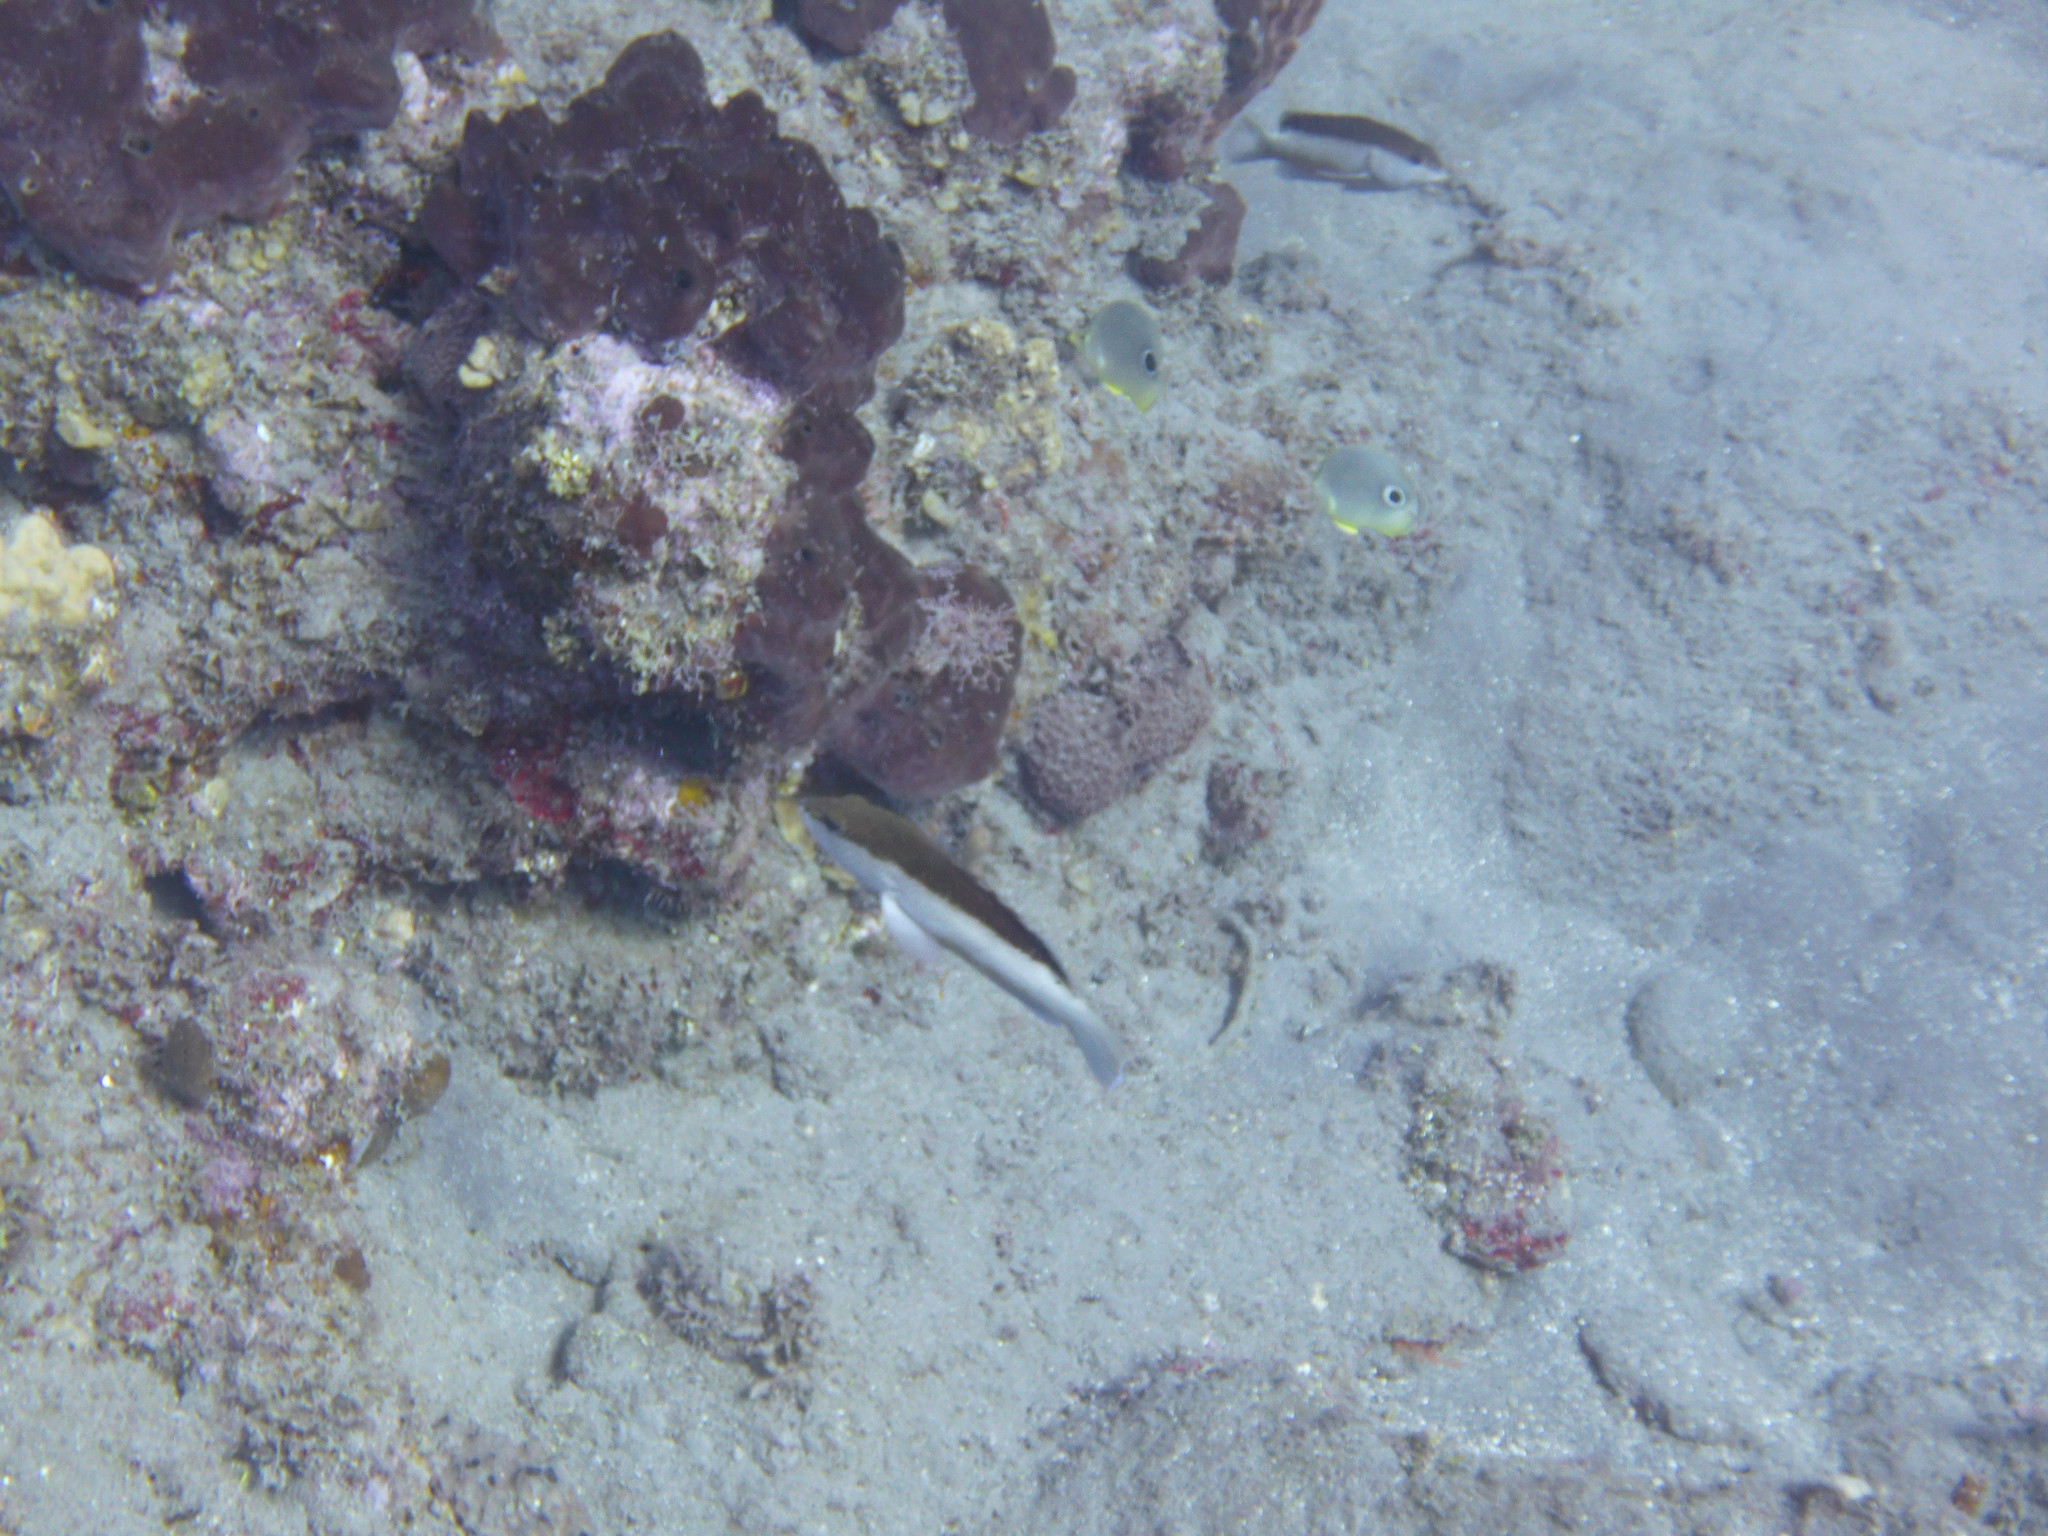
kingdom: Animalia
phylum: Chordata
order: Perciformes
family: Serranidae
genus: Cephalopholis
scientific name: Cephalopholis fulva
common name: Butterfish
